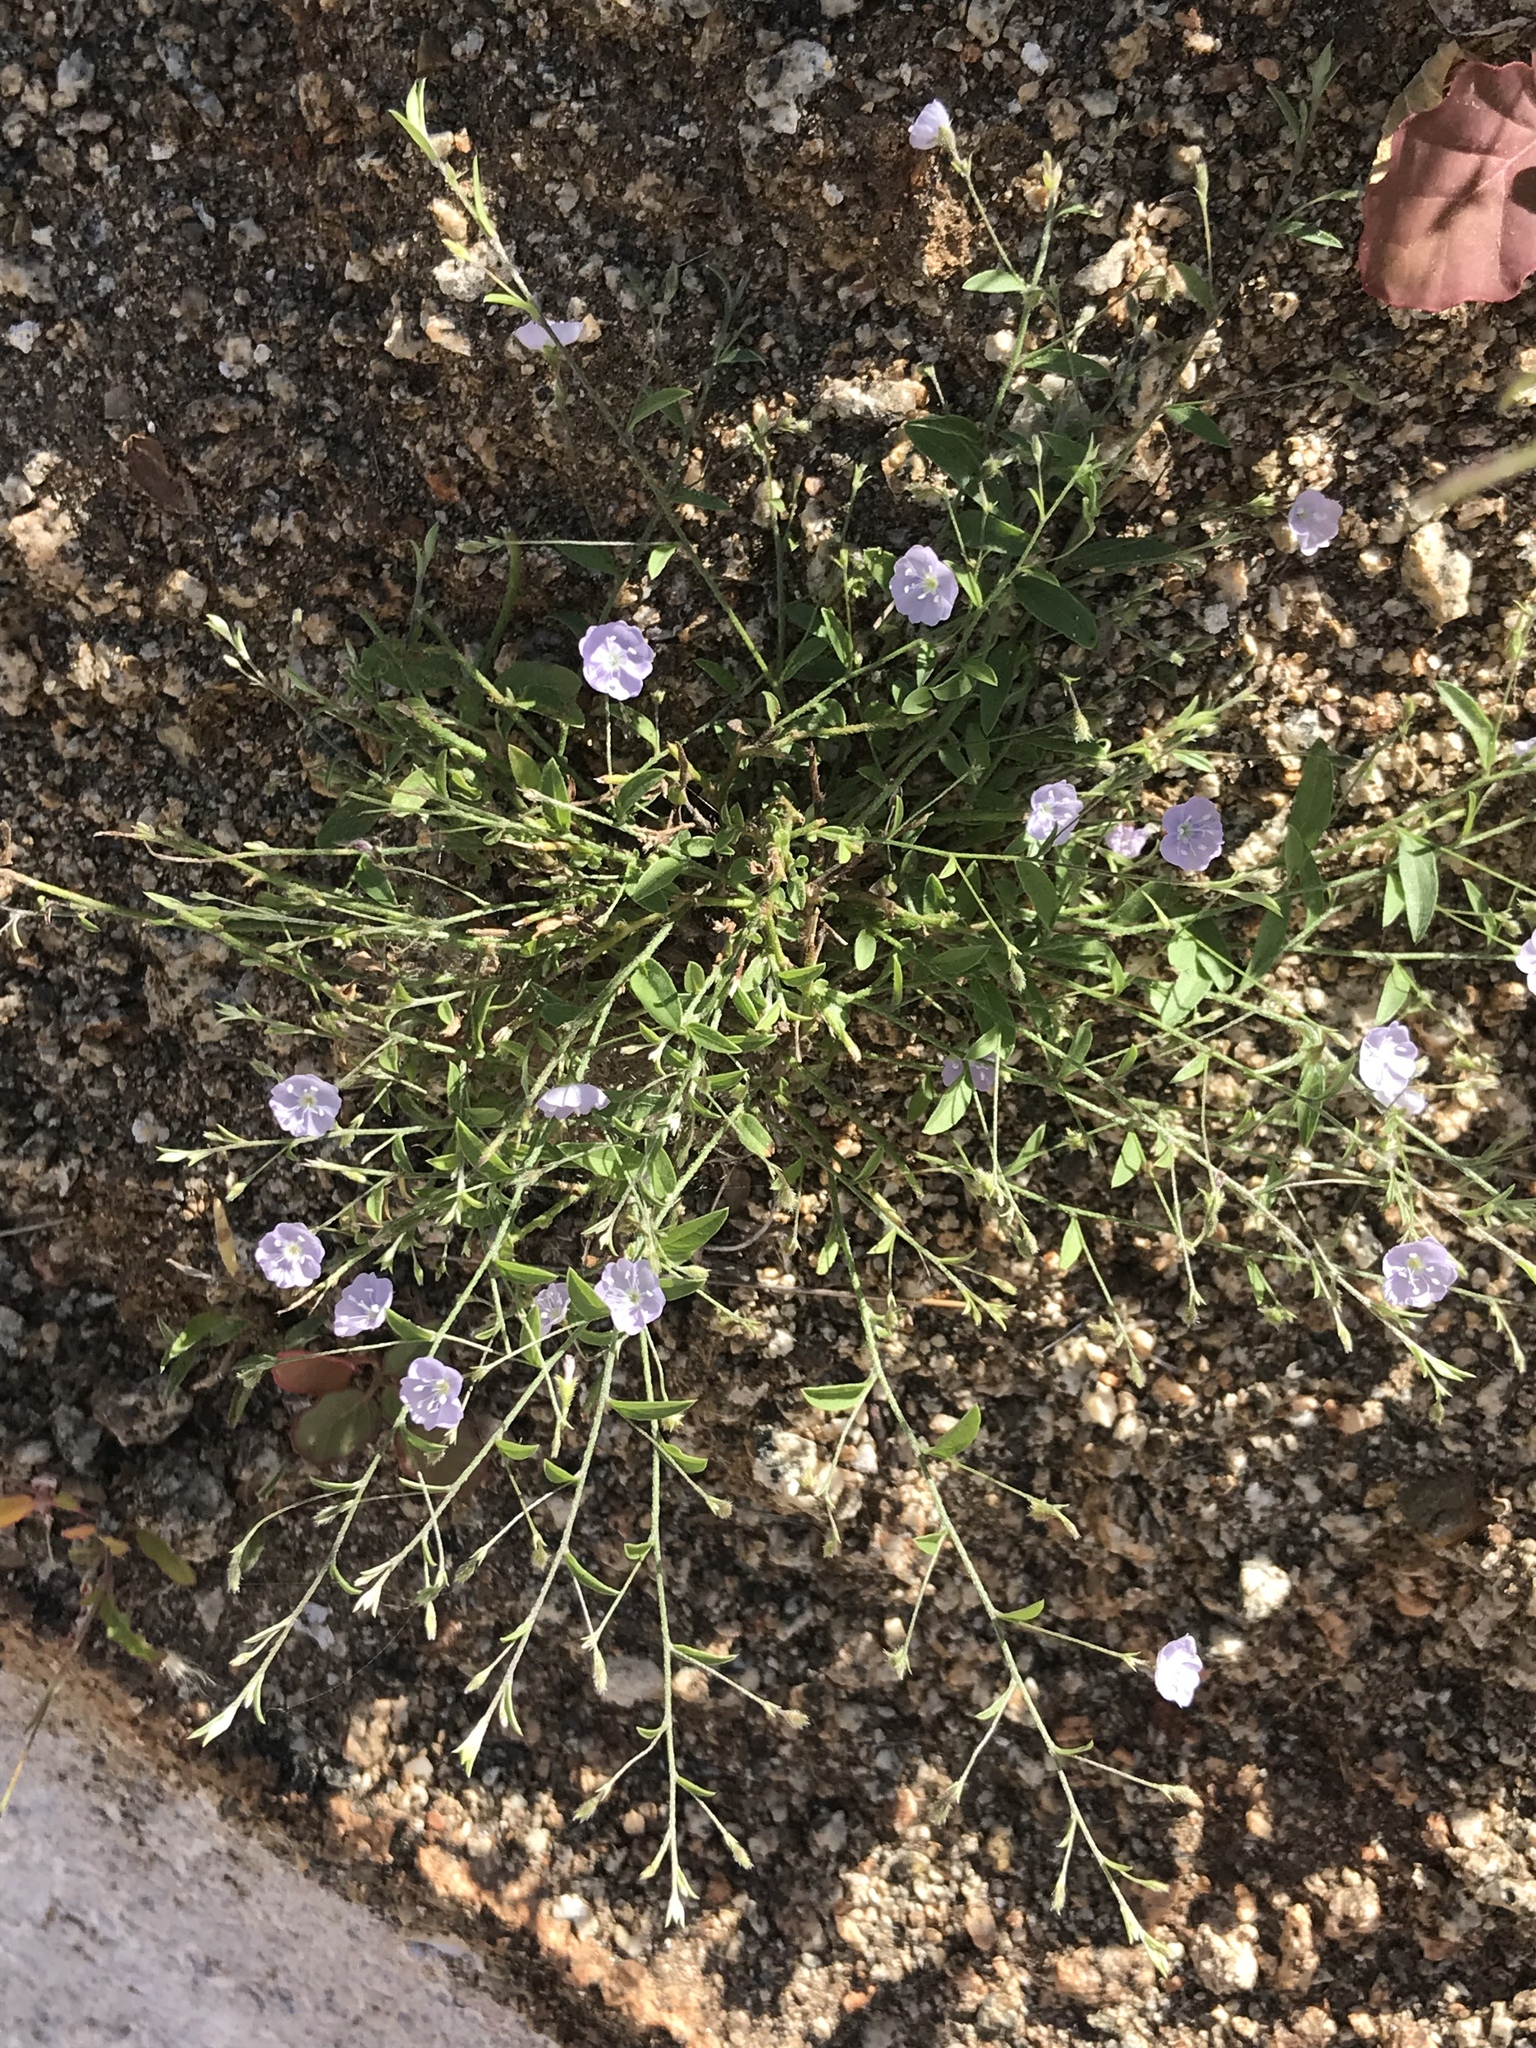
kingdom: Plantae
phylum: Tracheophyta
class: Magnoliopsida
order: Solanales
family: Convolvulaceae
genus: Evolvulus
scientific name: Evolvulus alsinoides
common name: Slender dwarf morning-glory
